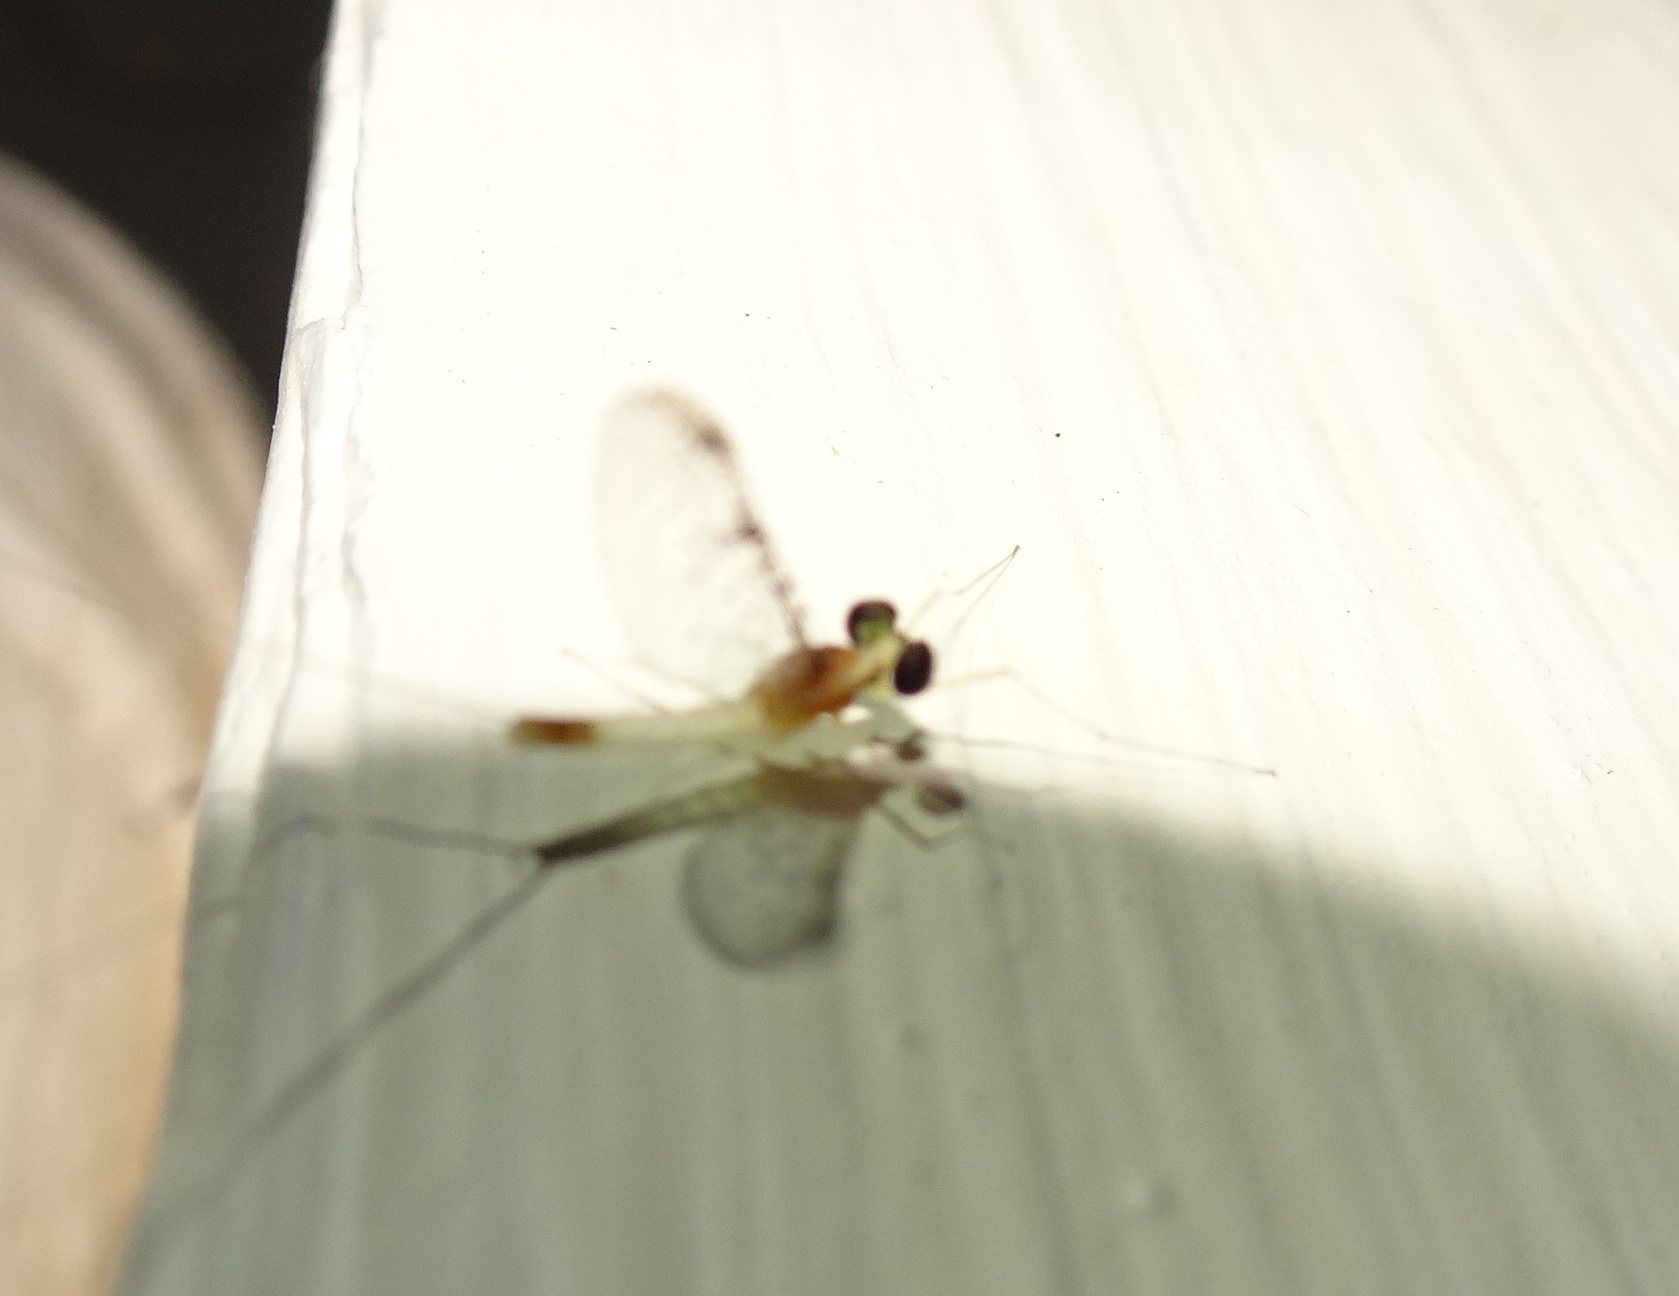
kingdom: Animalia
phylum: Arthropoda
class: Insecta
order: Ephemeroptera
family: Heptageniidae
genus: Stenacron
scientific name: Stenacron interpunctatum
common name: Orange cahill
